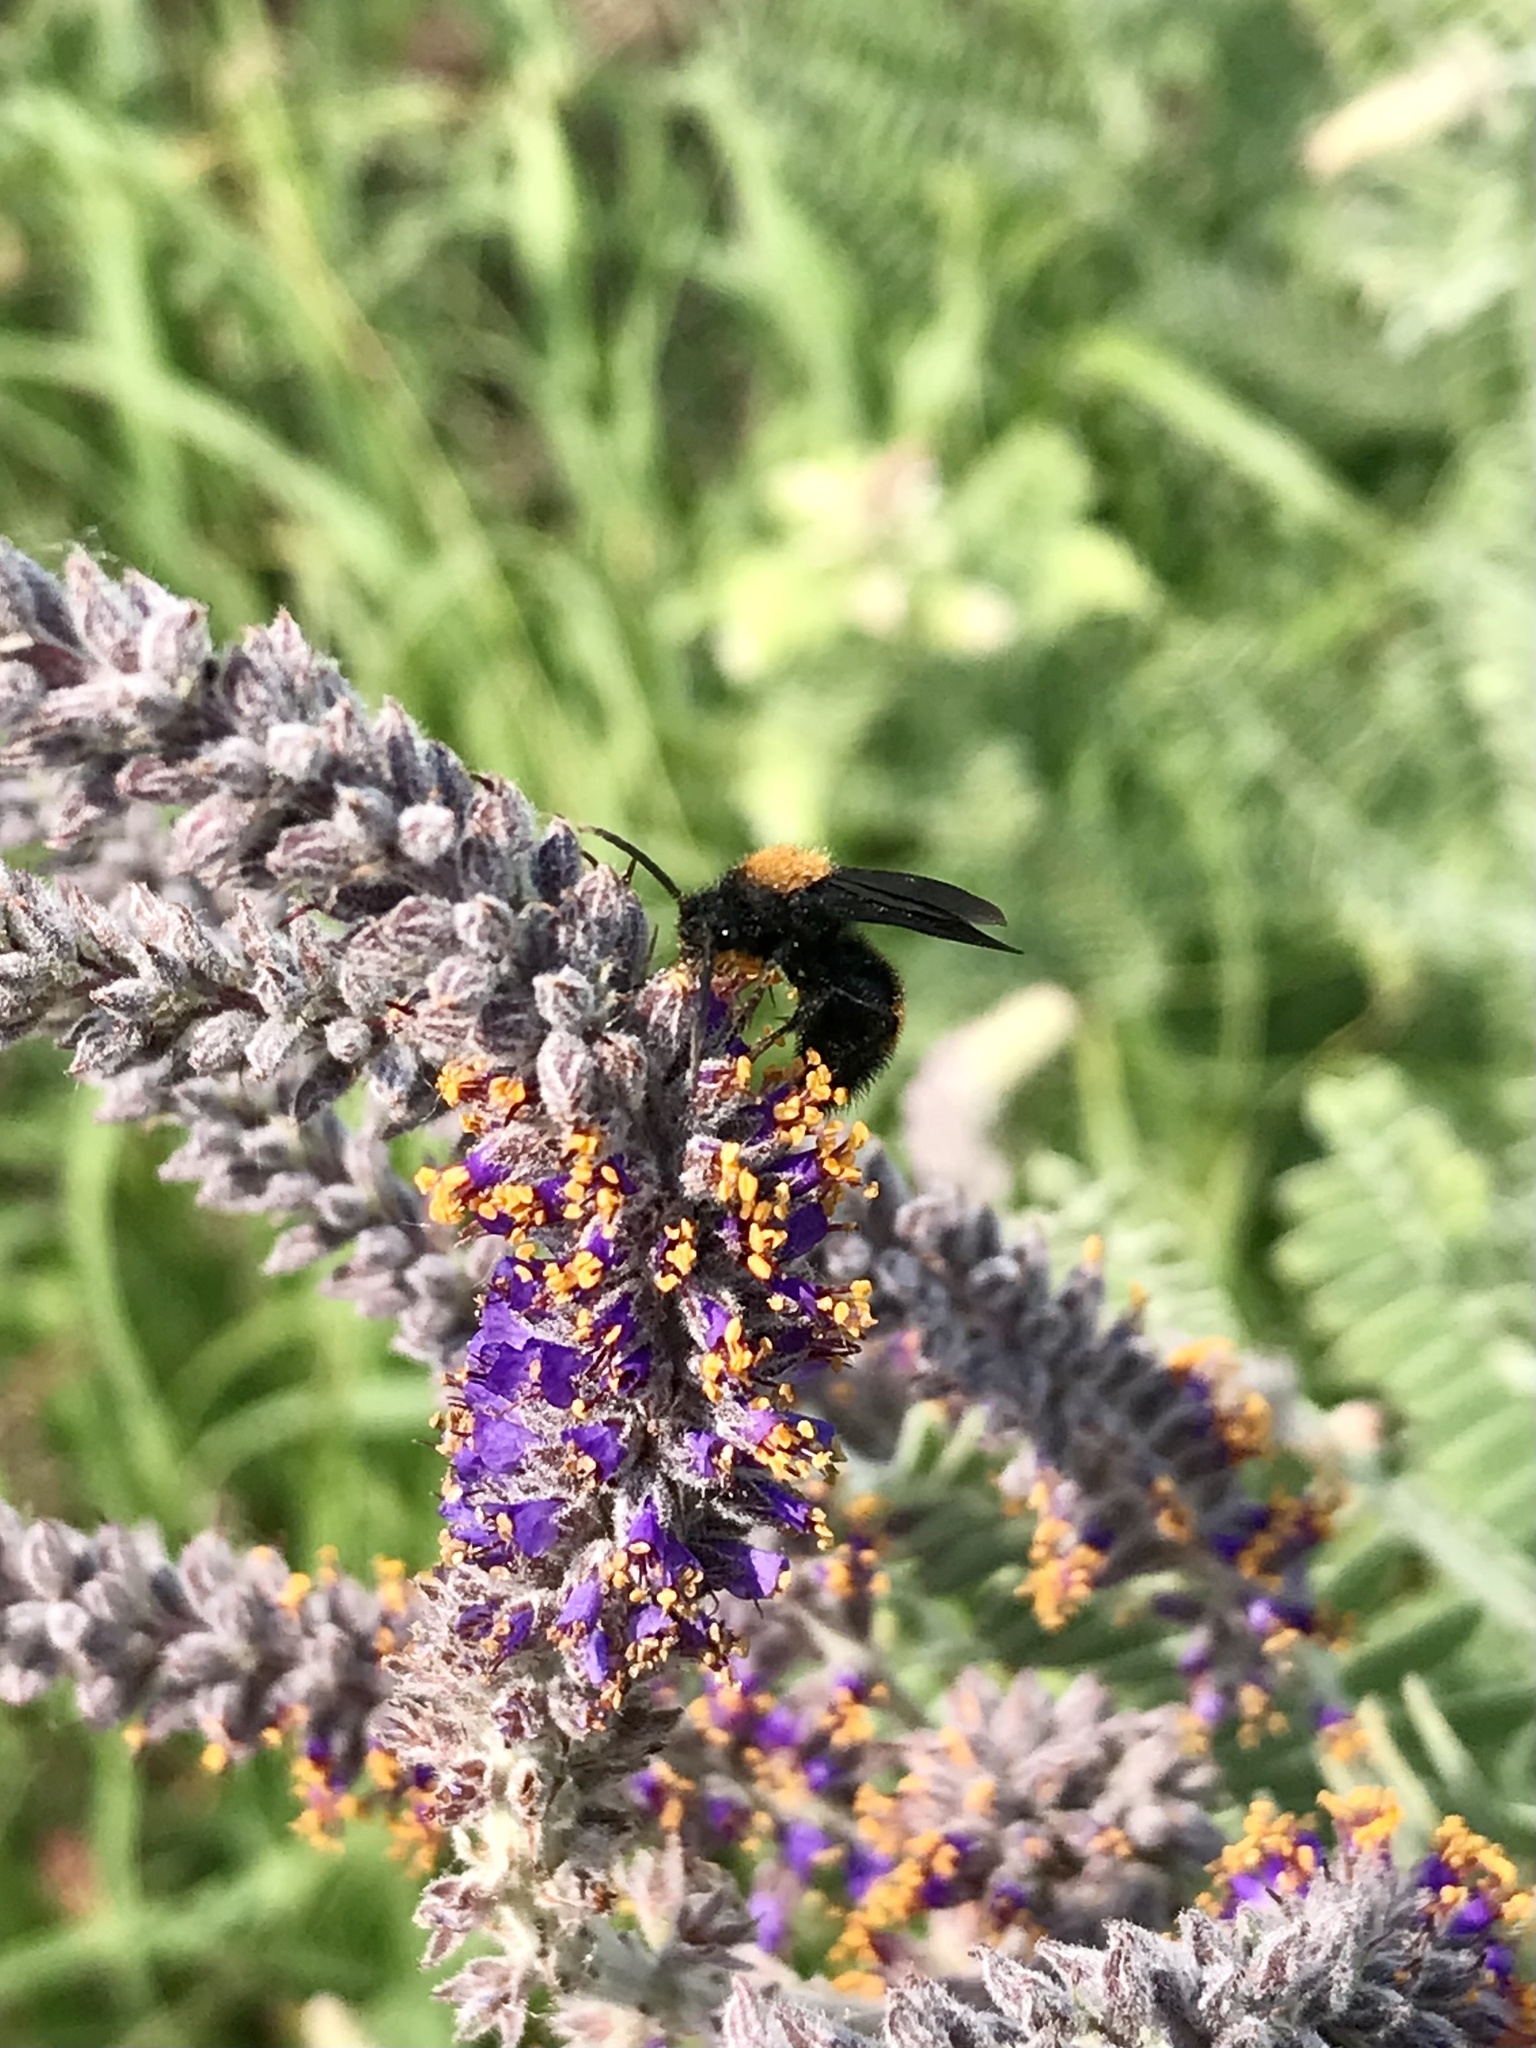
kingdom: Animalia
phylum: Arthropoda
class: Insecta
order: Hymenoptera
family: Mutillidae
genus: Dasymutilla
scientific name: Dasymutilla
